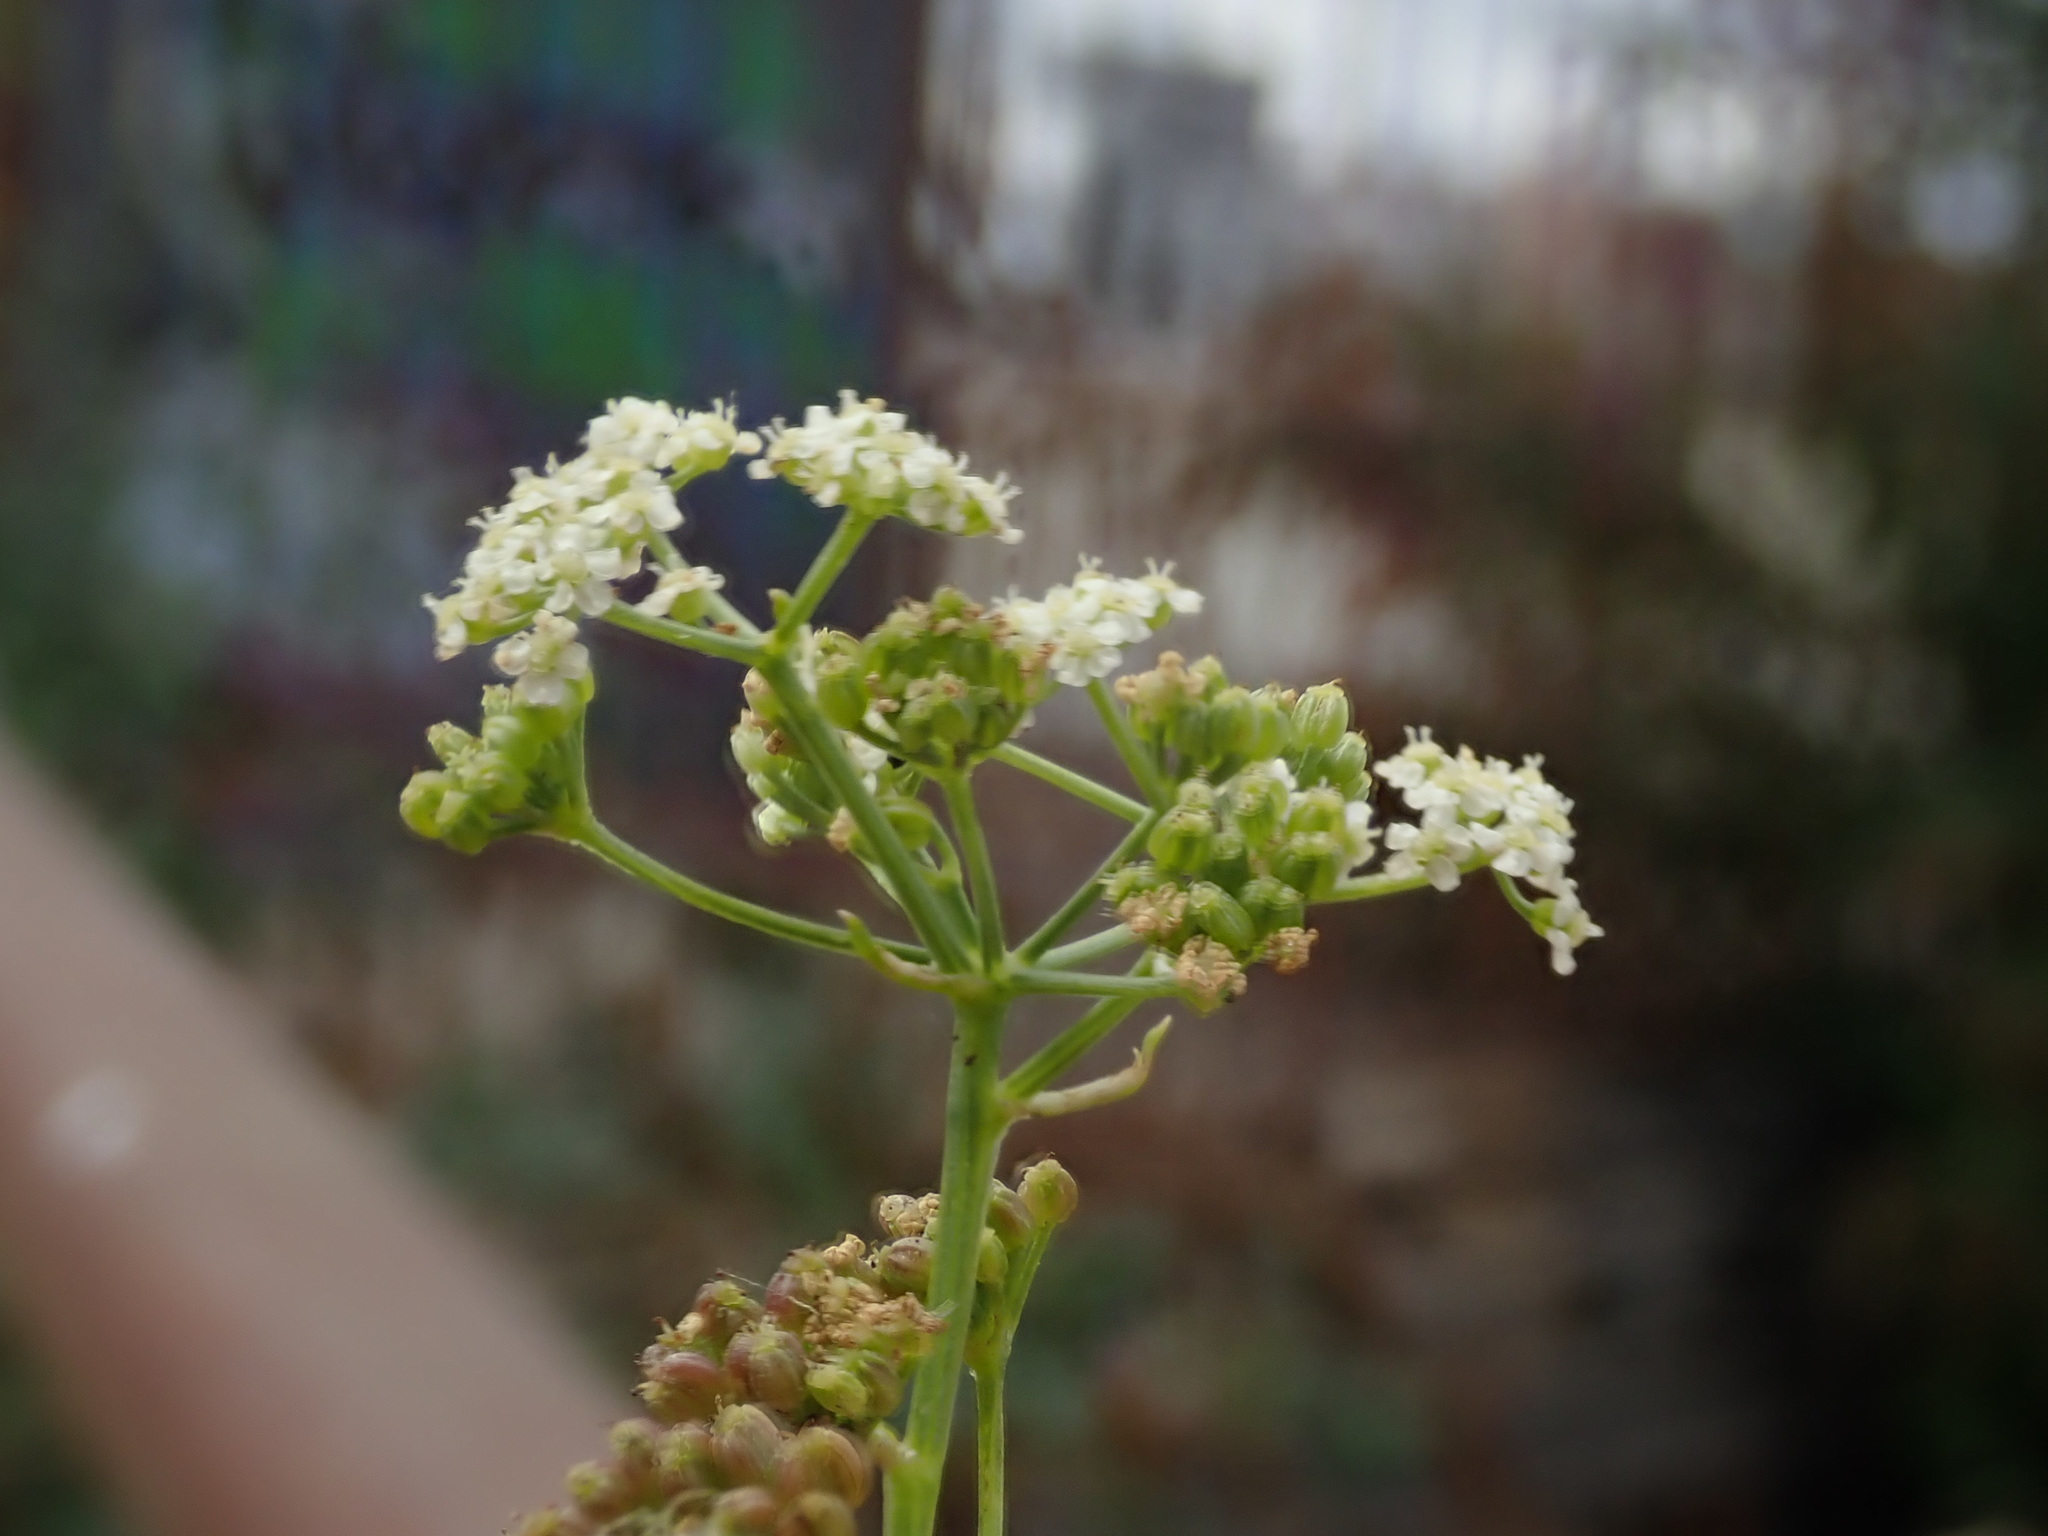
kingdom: Plantae
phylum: Tracheophyta
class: Magnoliopsida
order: Apiales
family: Apiaceae
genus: Apium
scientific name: Apium graveolens
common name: Wild celery
